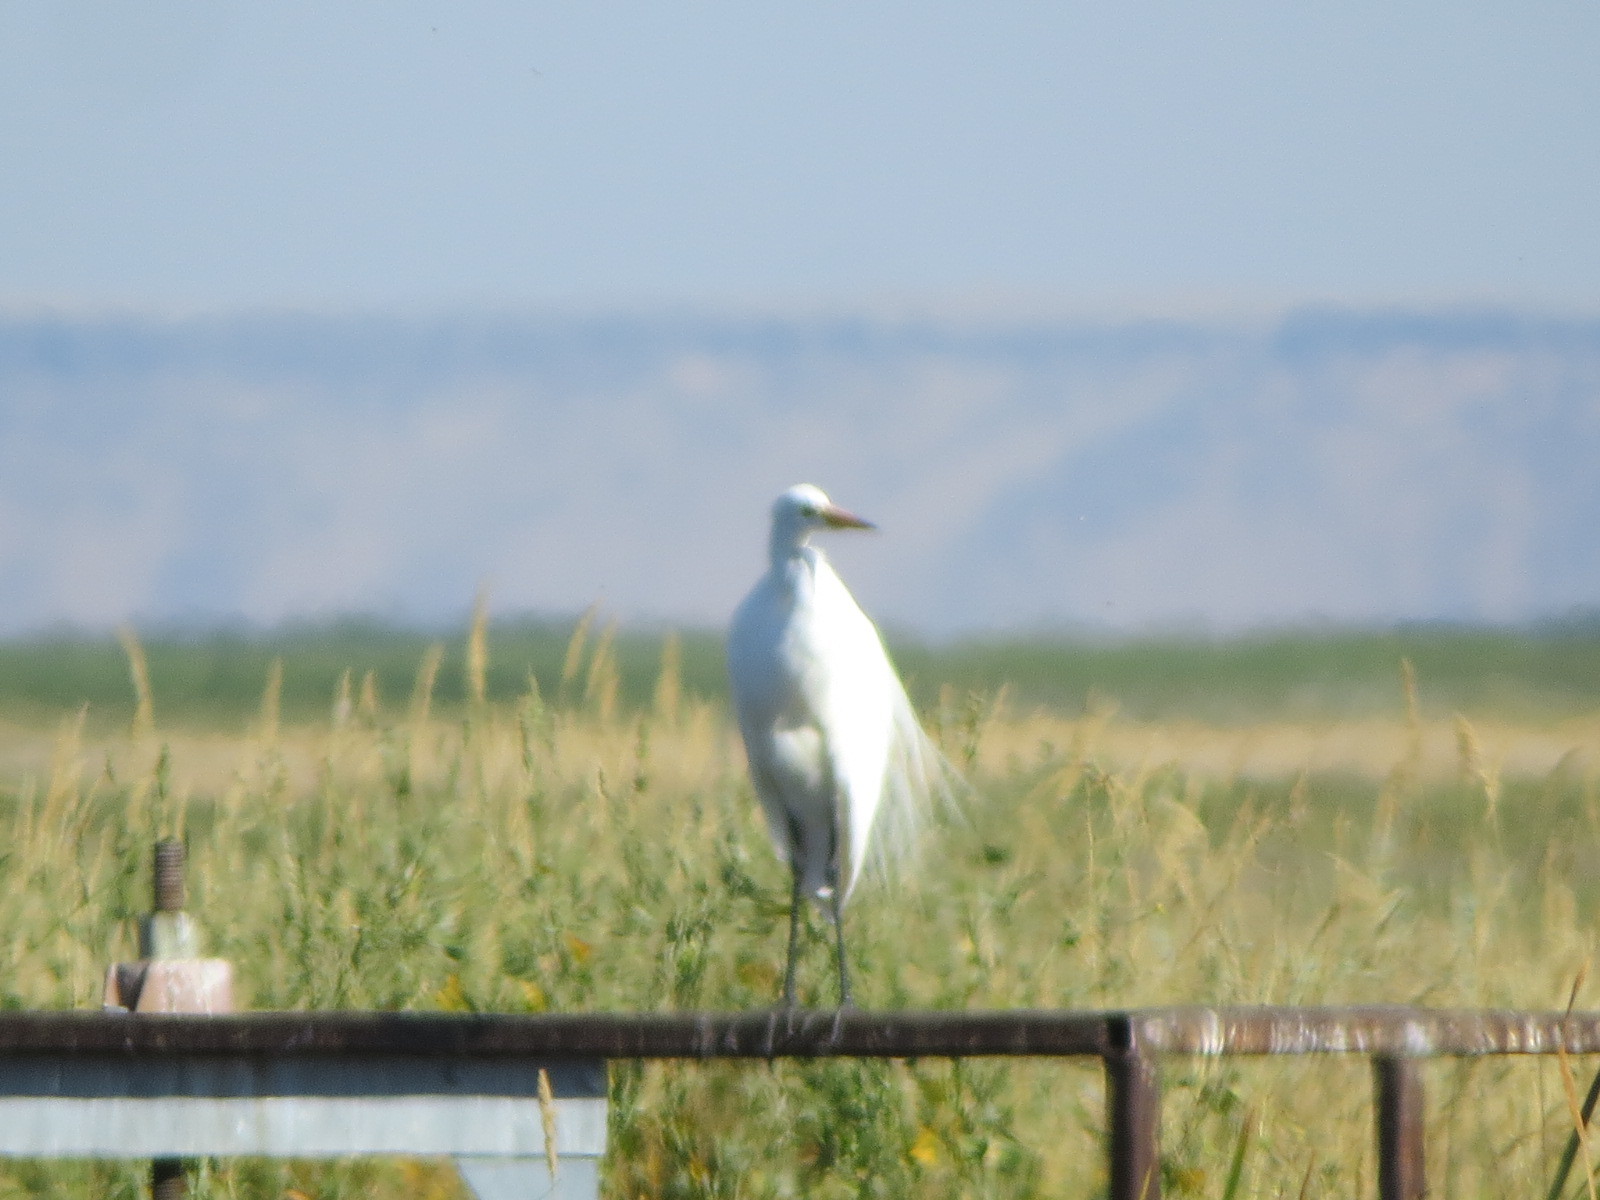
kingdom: Animalia
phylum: Chordata
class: Aves
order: Pelecaniformes
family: Ardeidae
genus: Ardea
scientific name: Ardea alba
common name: Great egret
